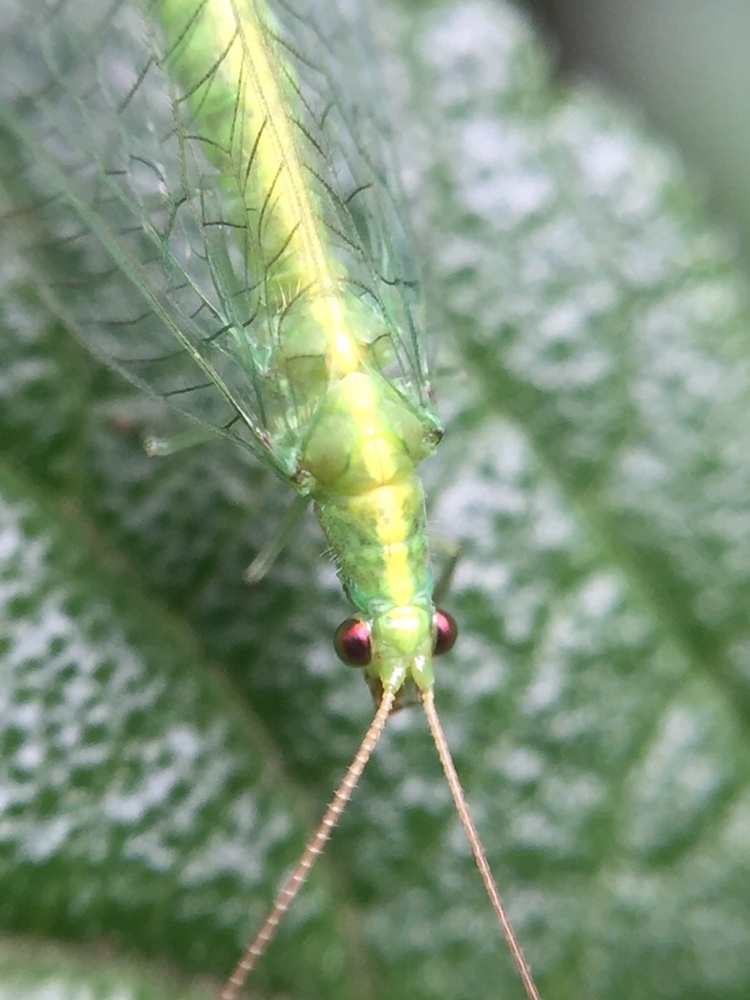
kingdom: Animalia
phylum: Arthropoda
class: Insecta
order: Neuroptera
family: Chrysopidae
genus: Mallada
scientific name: Mallada basalis
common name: Green lacewing
